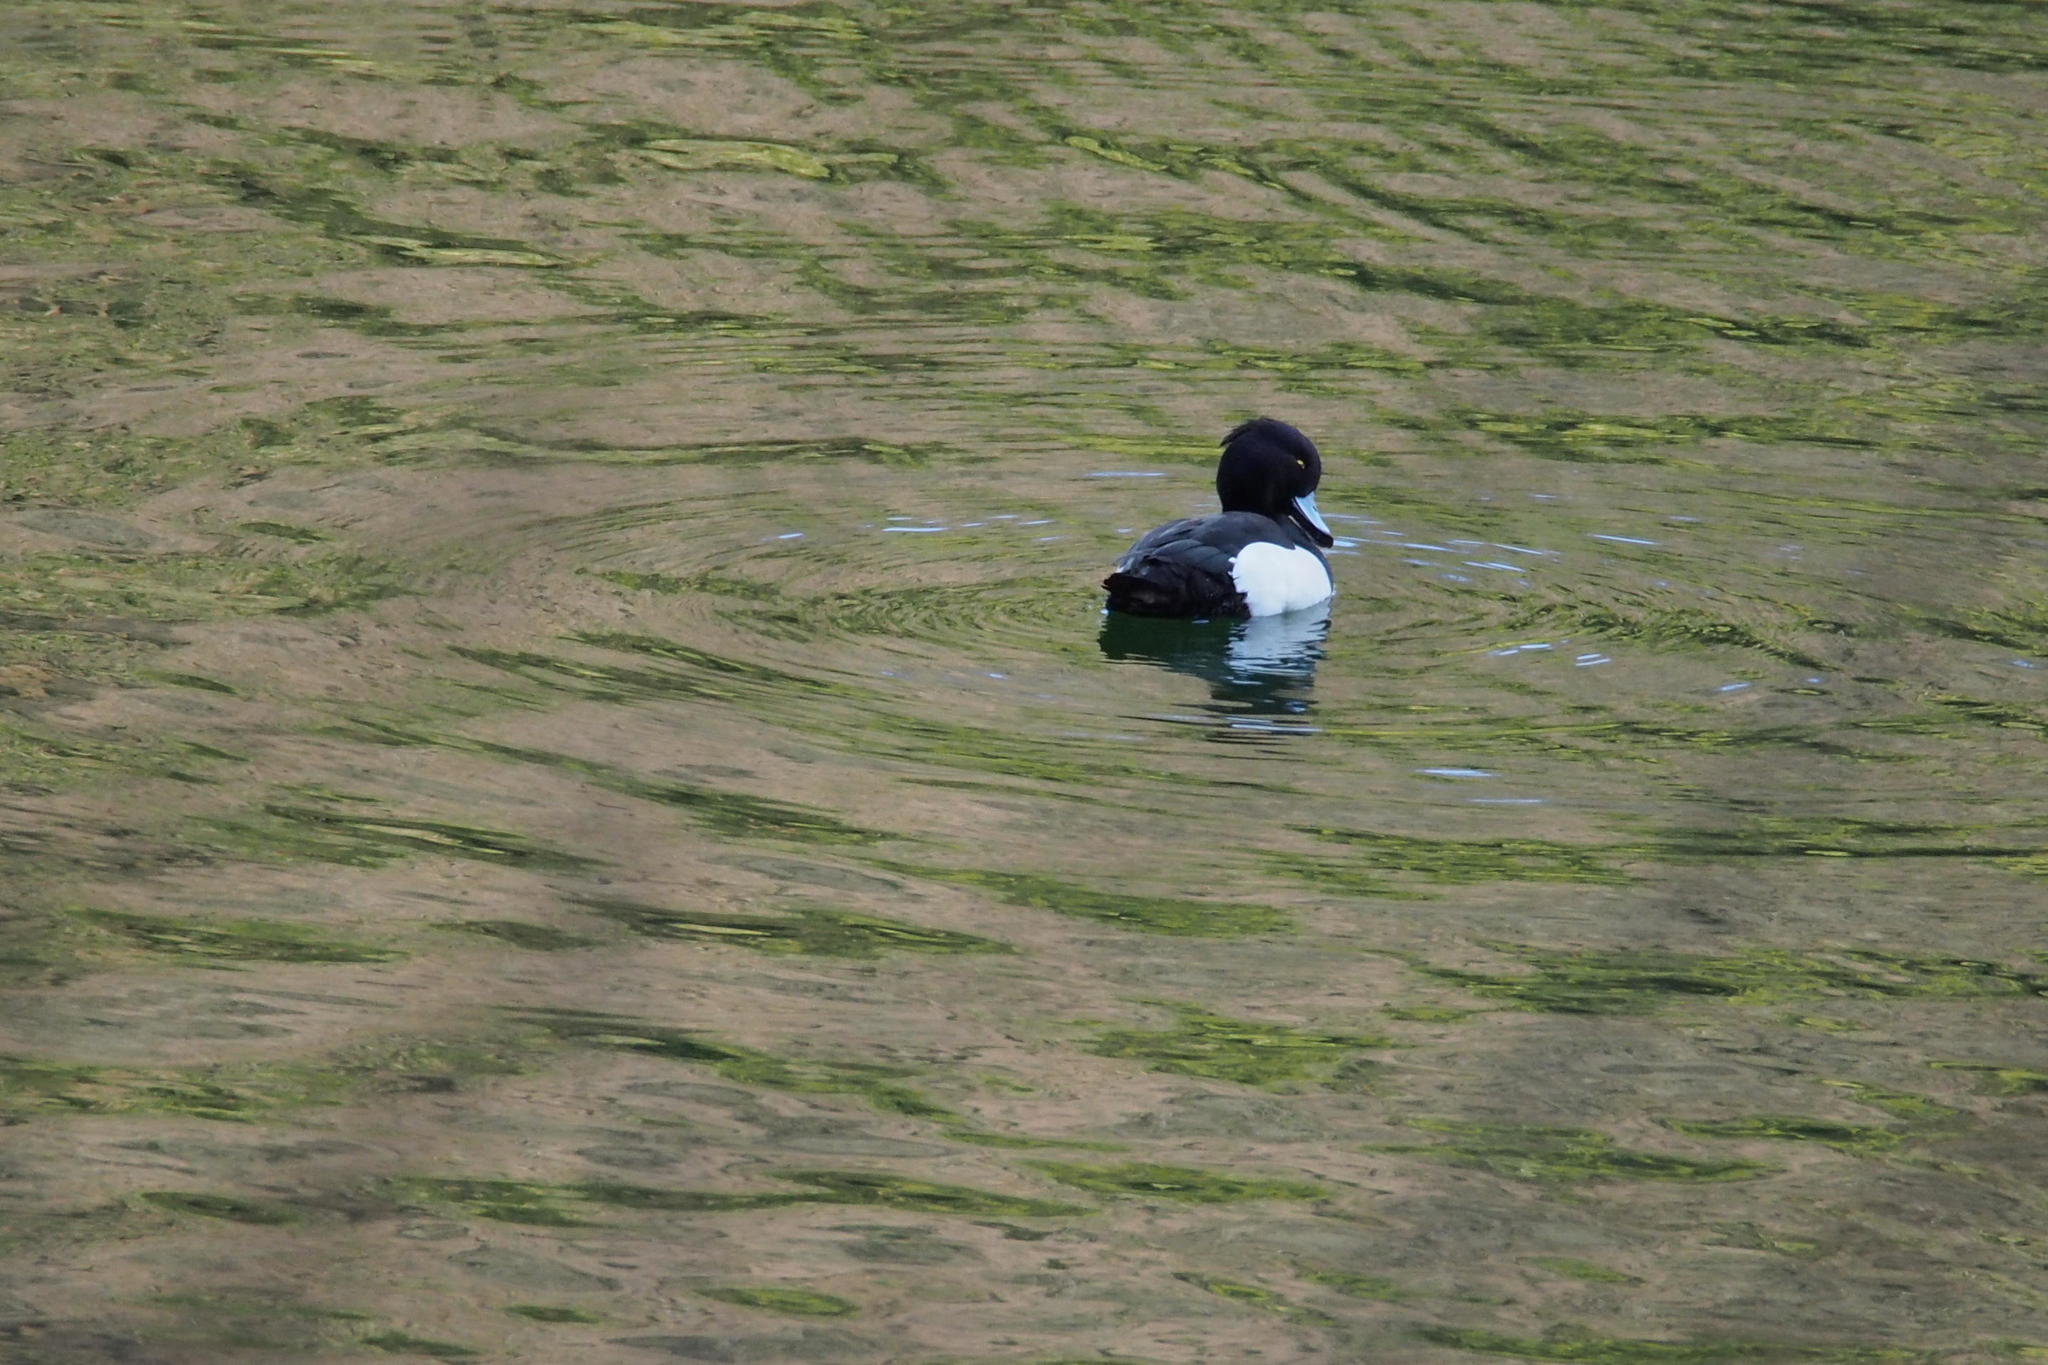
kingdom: Animalia
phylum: Chordata
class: Aves
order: Anseriformes
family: Anatidae
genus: Aythya
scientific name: Aythya fuligula
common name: Tufted duck
